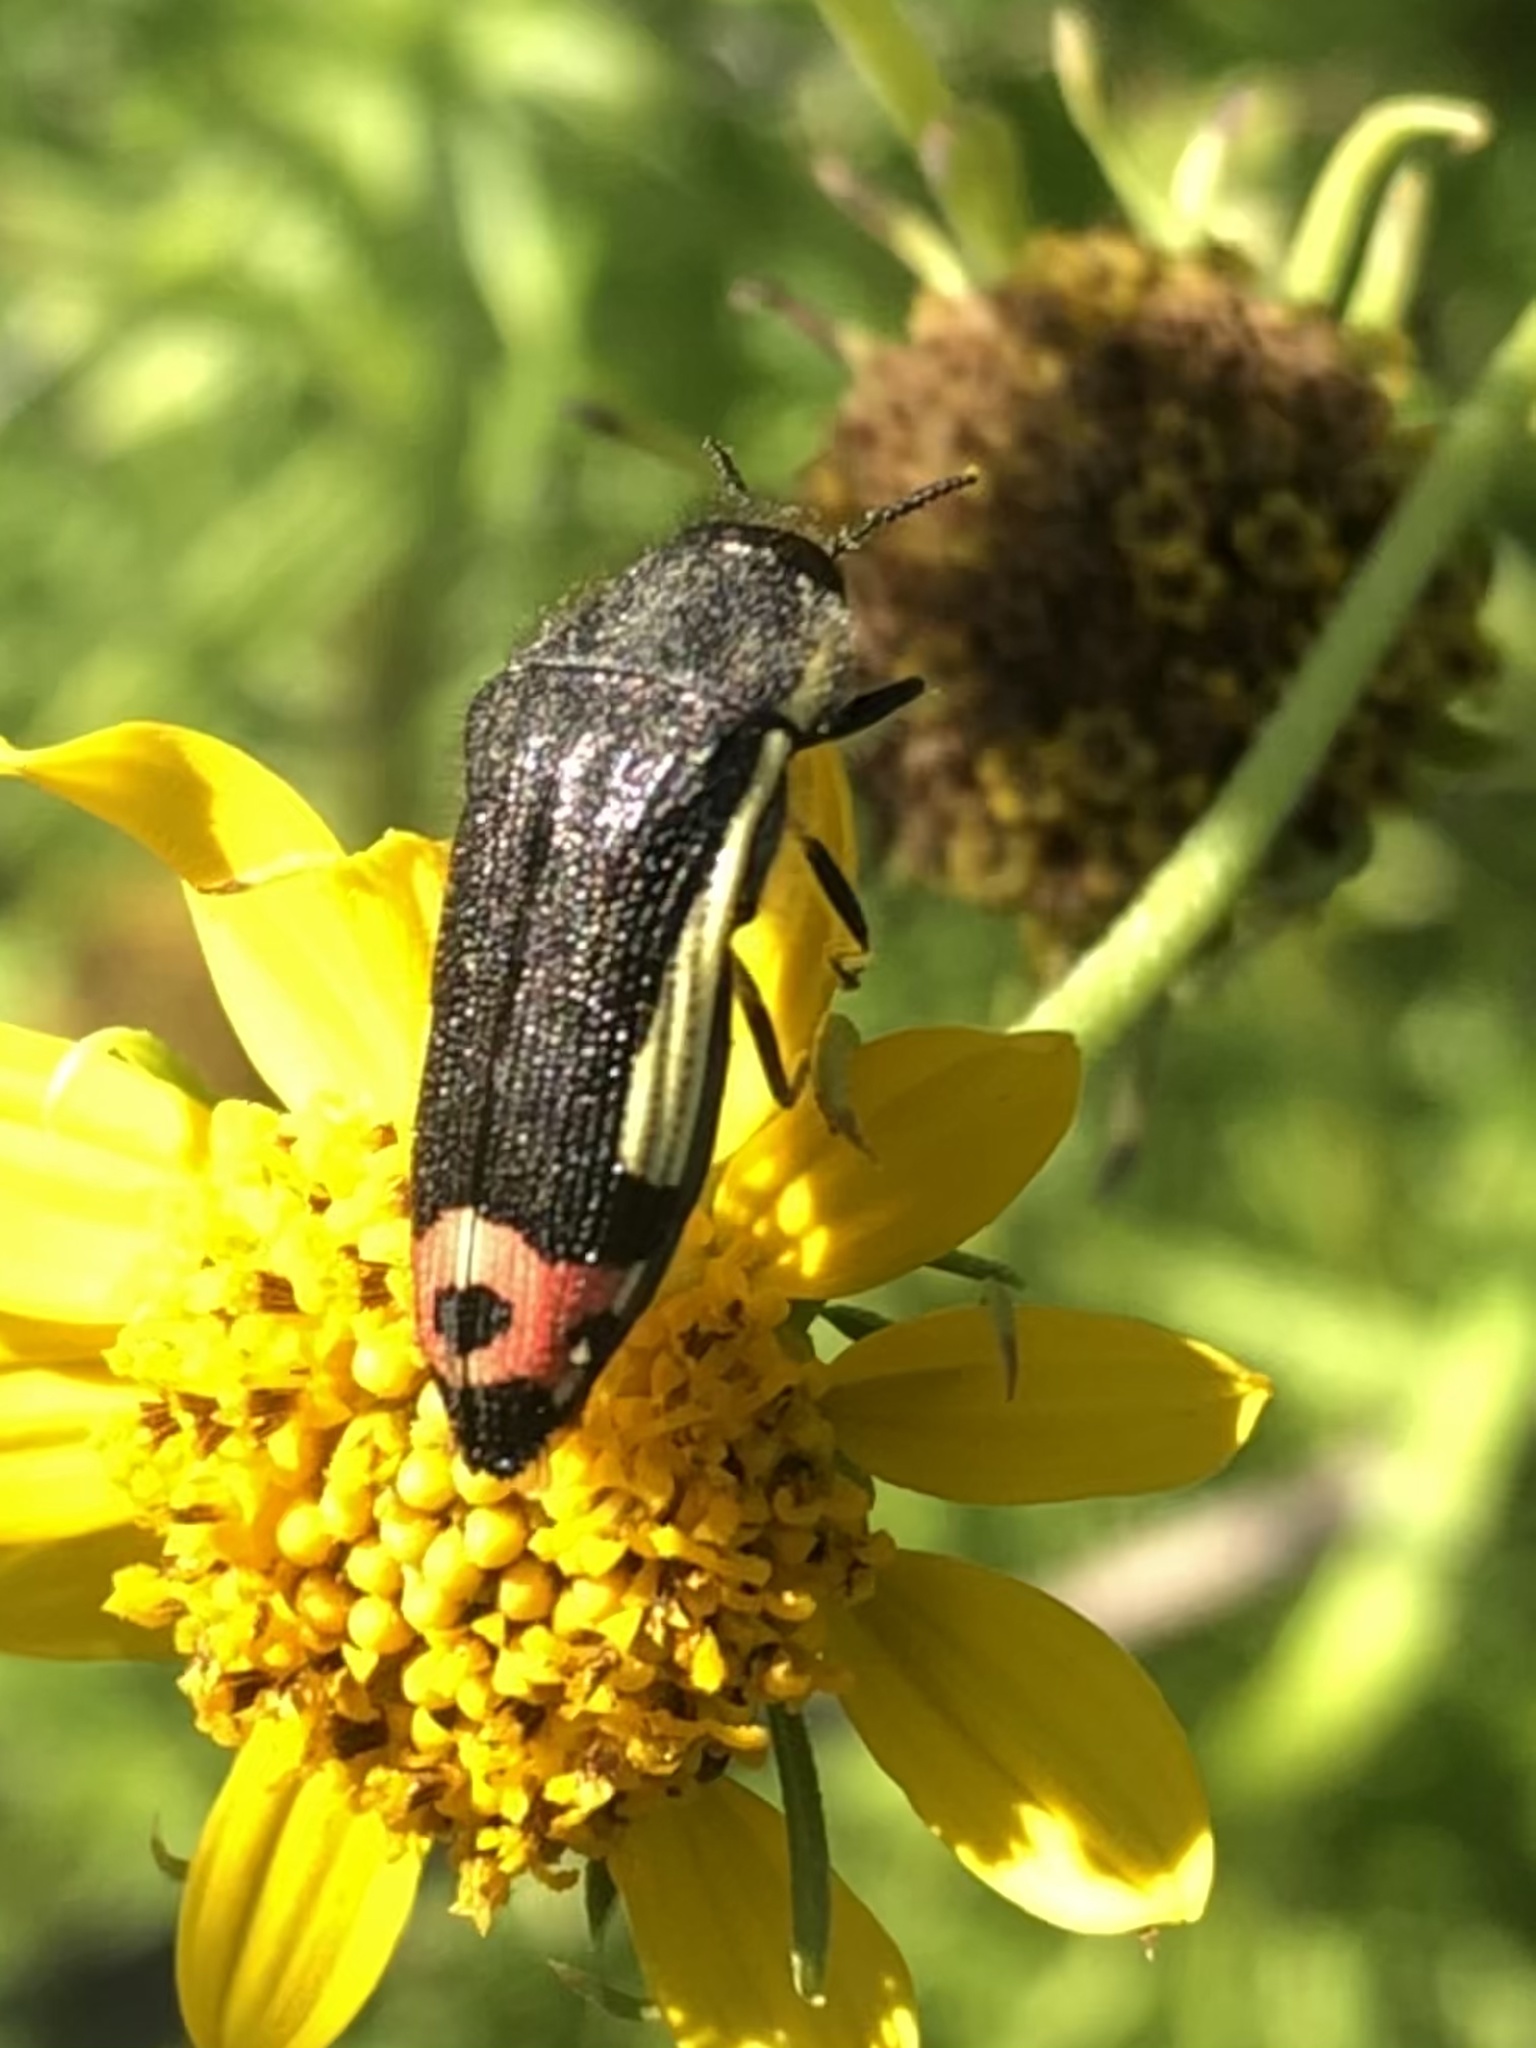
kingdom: Animalia
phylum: Arthropoda
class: Insecta
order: Coleoptera
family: Buprestidae
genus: Acmaeodera
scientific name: Acmaeodera flavomarginata
